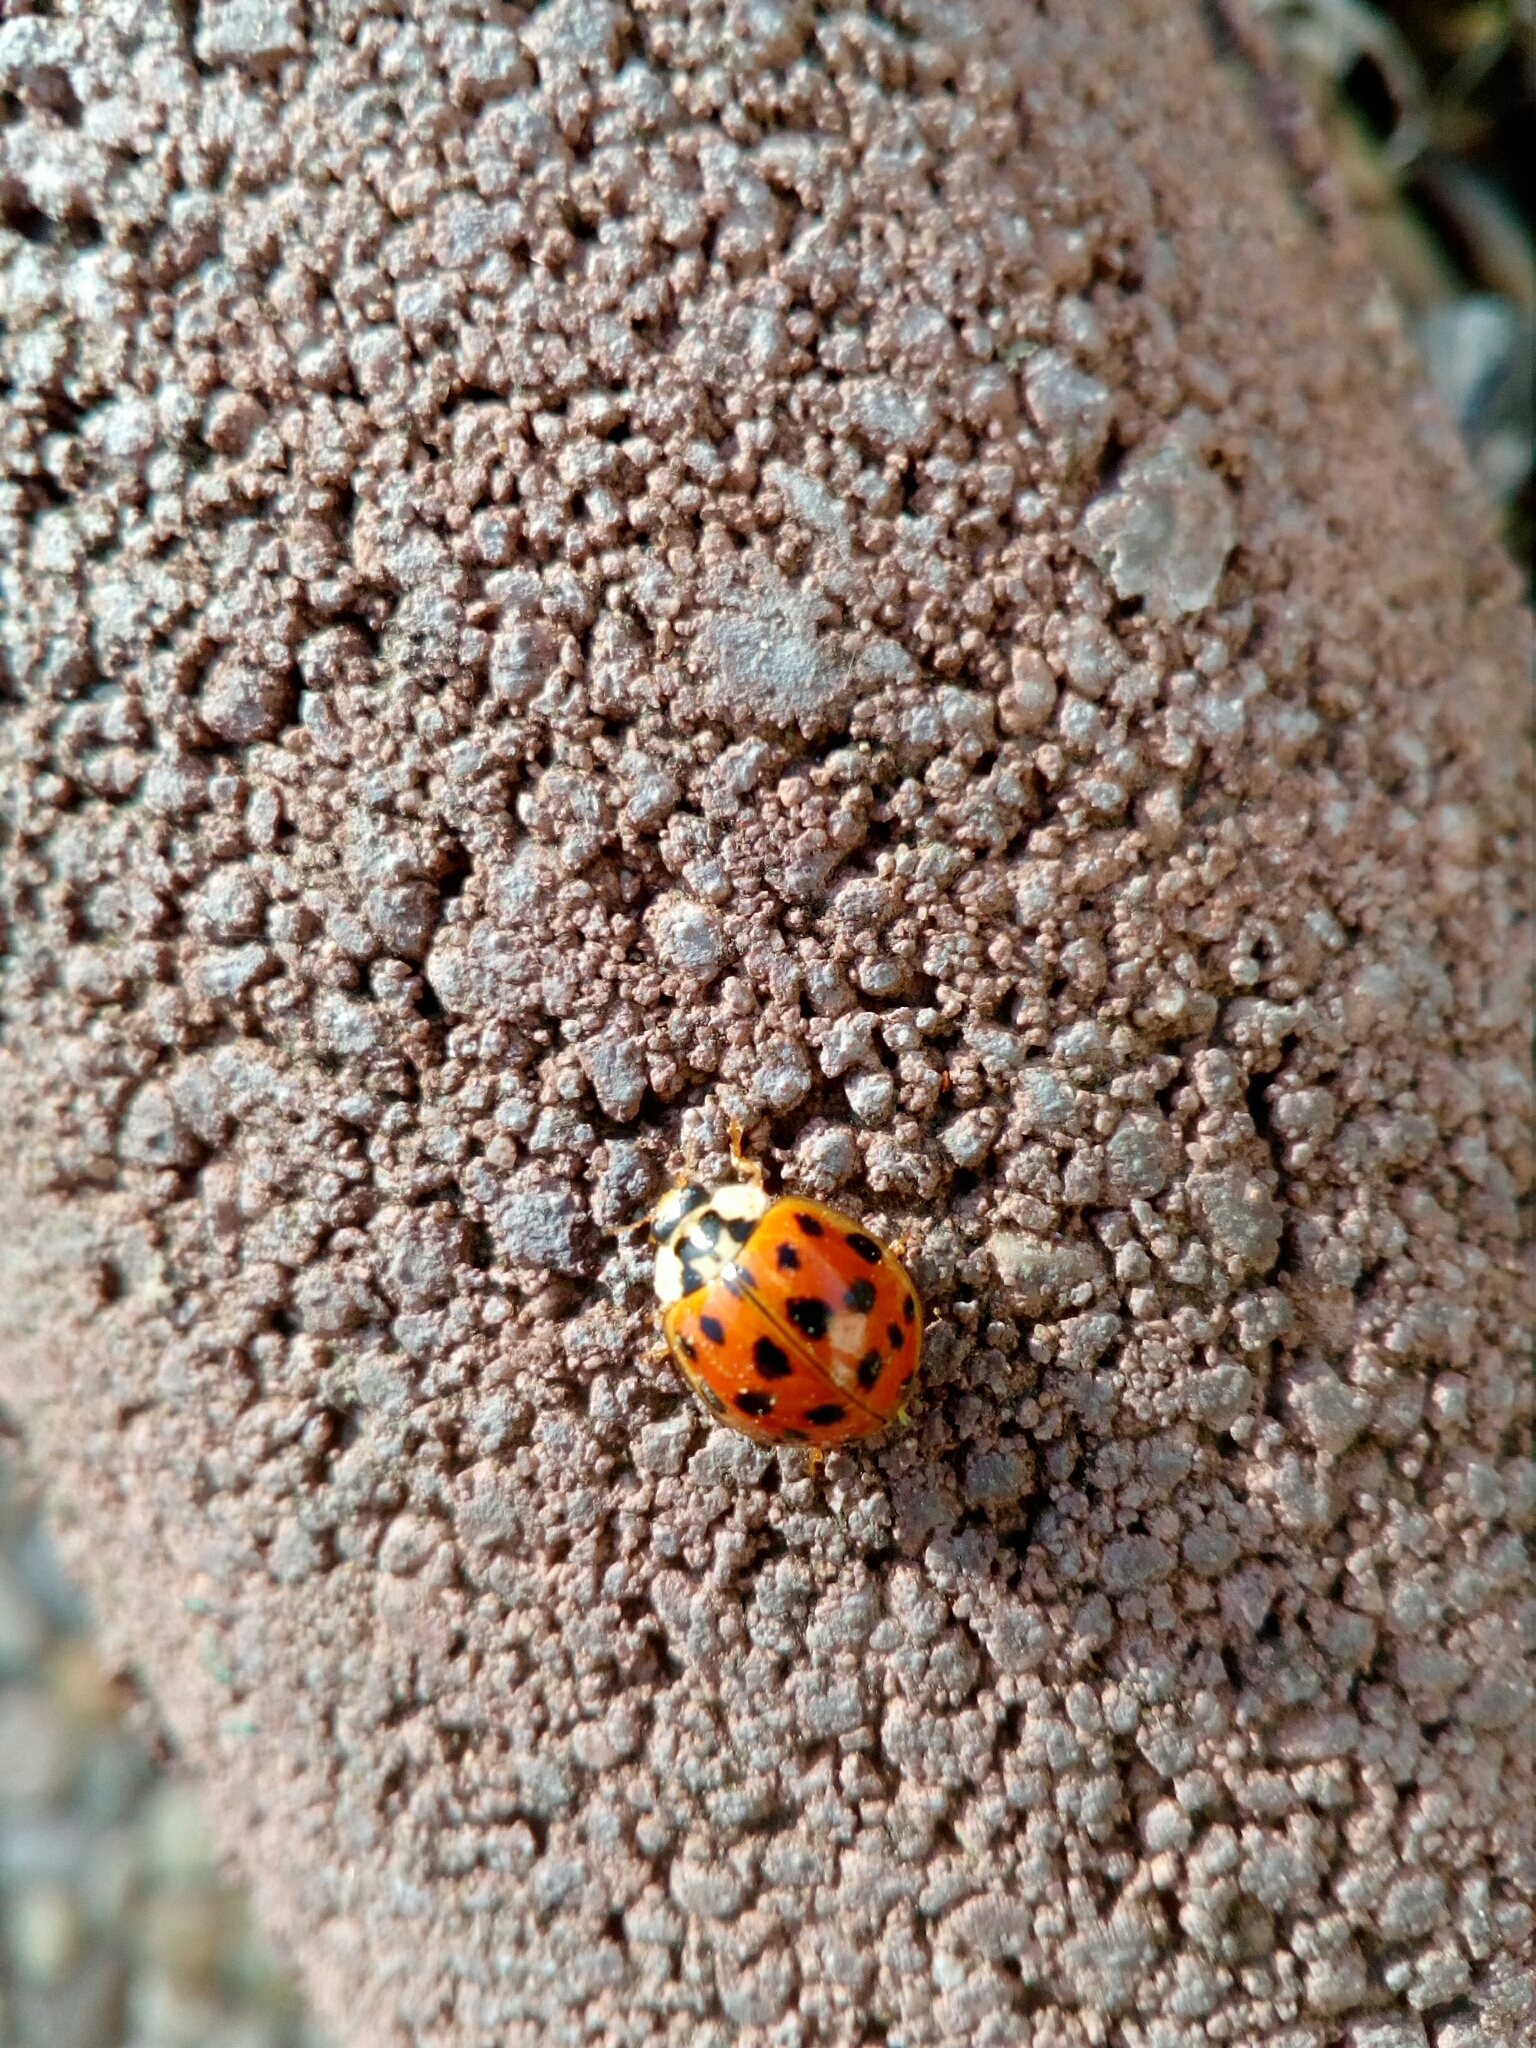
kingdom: Animalia
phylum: Arthropoda
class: Insecta
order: Coleoptera
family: Coccinellidae
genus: Harmonia
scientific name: Harmonia axyridis
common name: Harlequin ladybird
